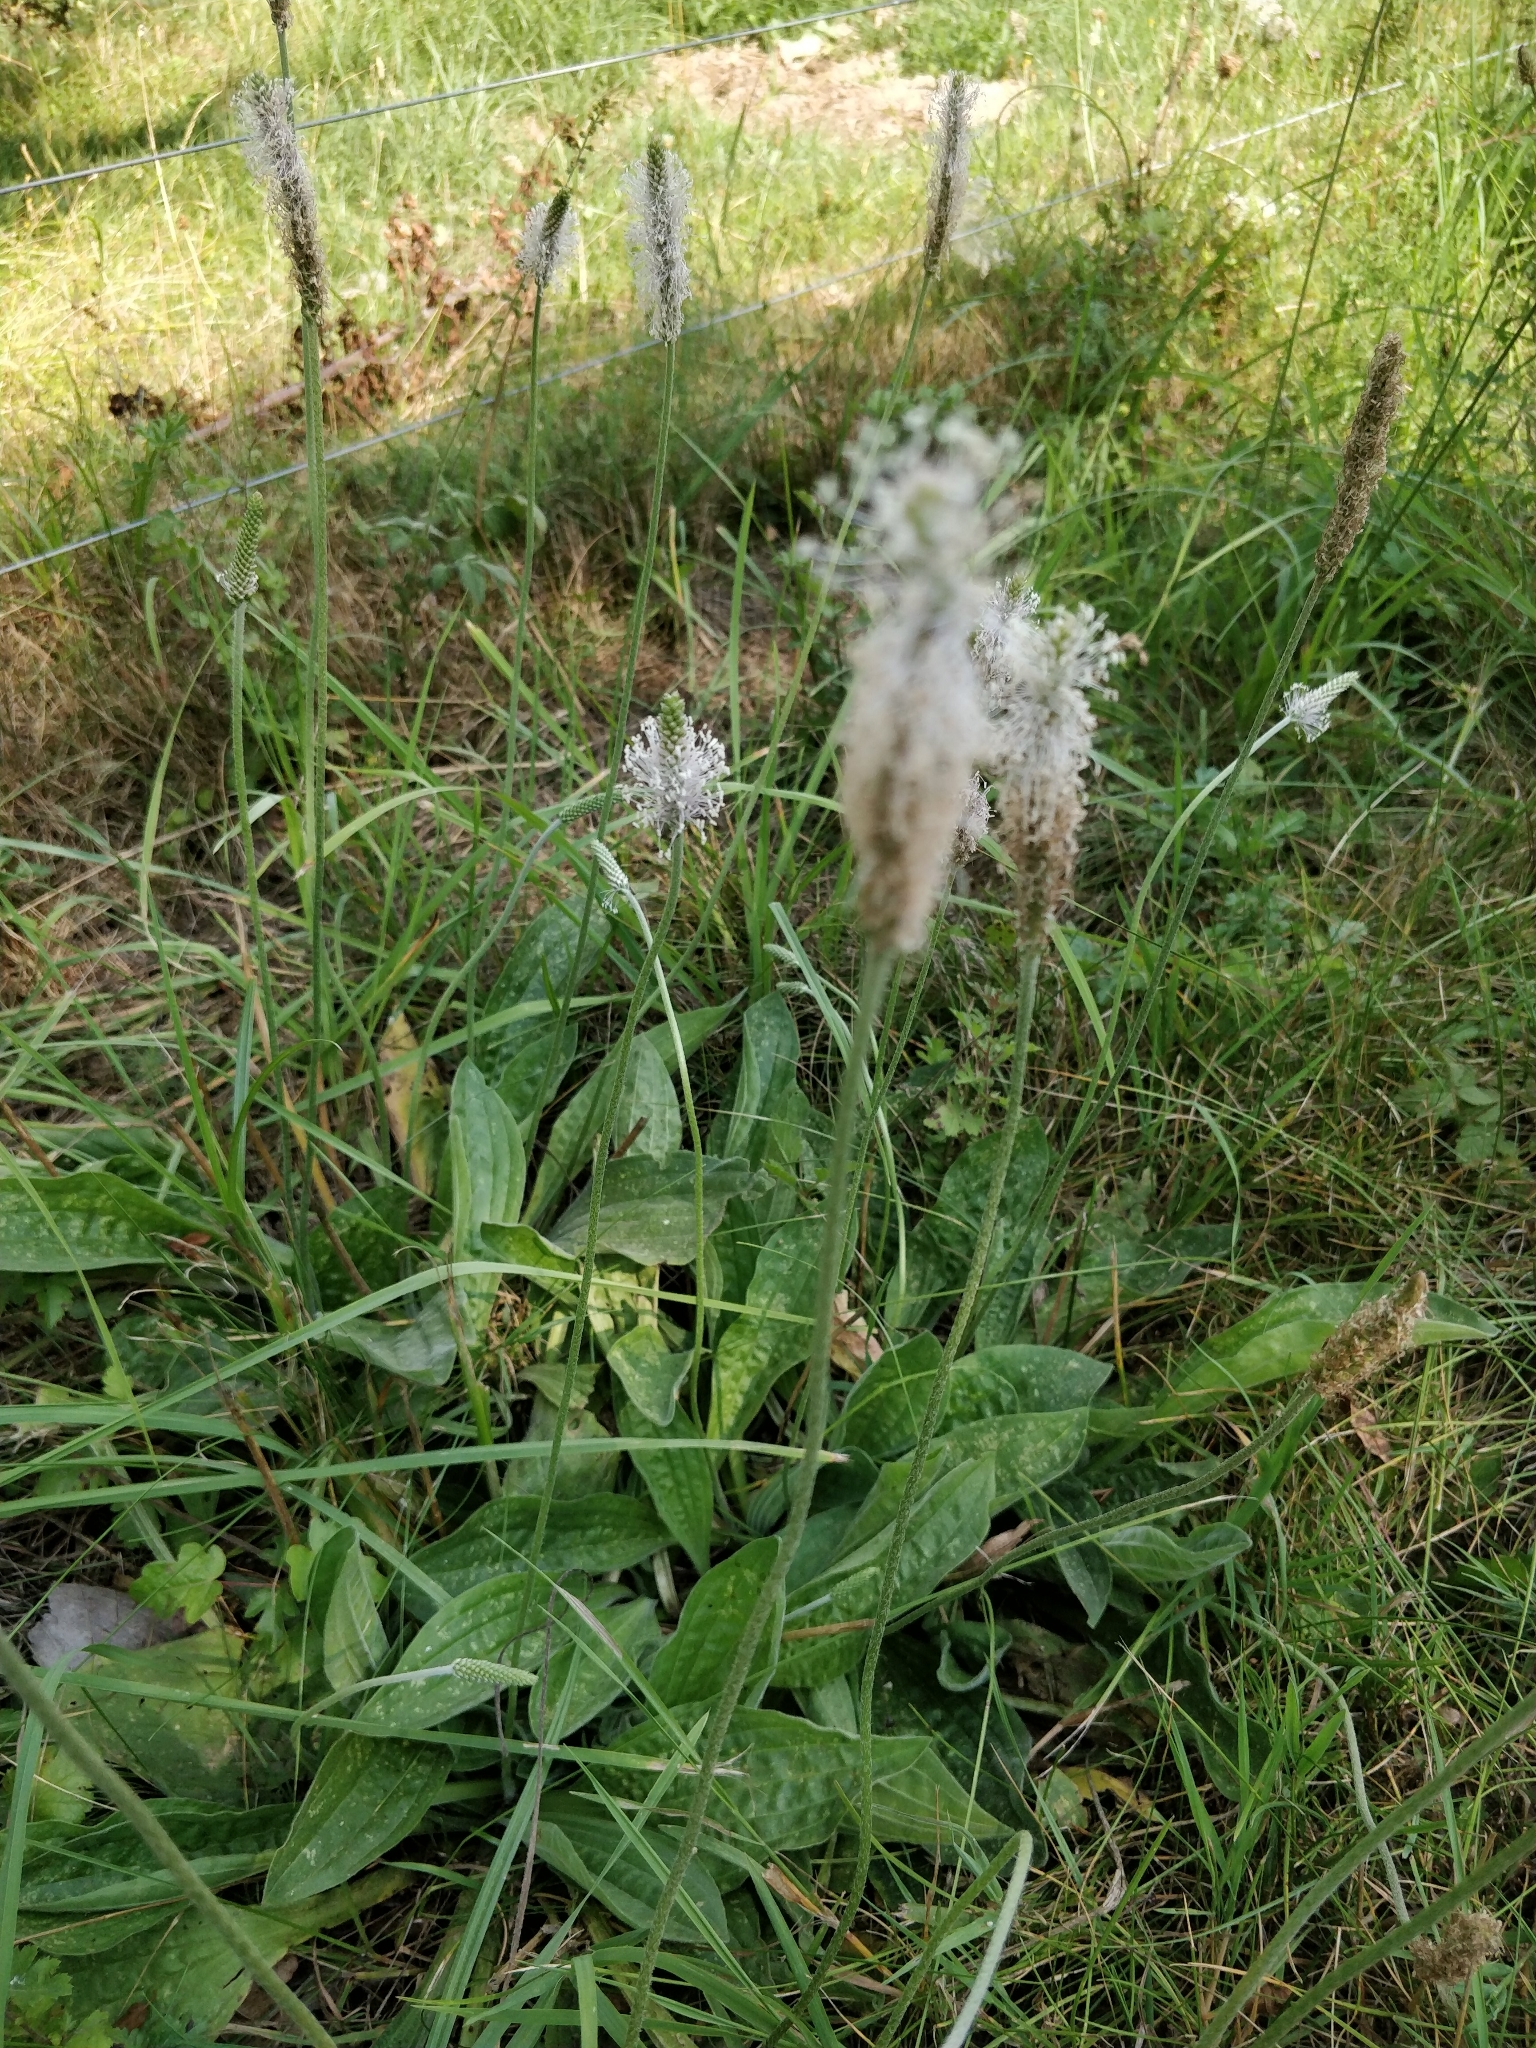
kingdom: Plantae
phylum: Tracheophyta
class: Magnoliopsida
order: Lamiales
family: Plantaginaceae
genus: Plantago
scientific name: Plantago media
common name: Hoary plantain
